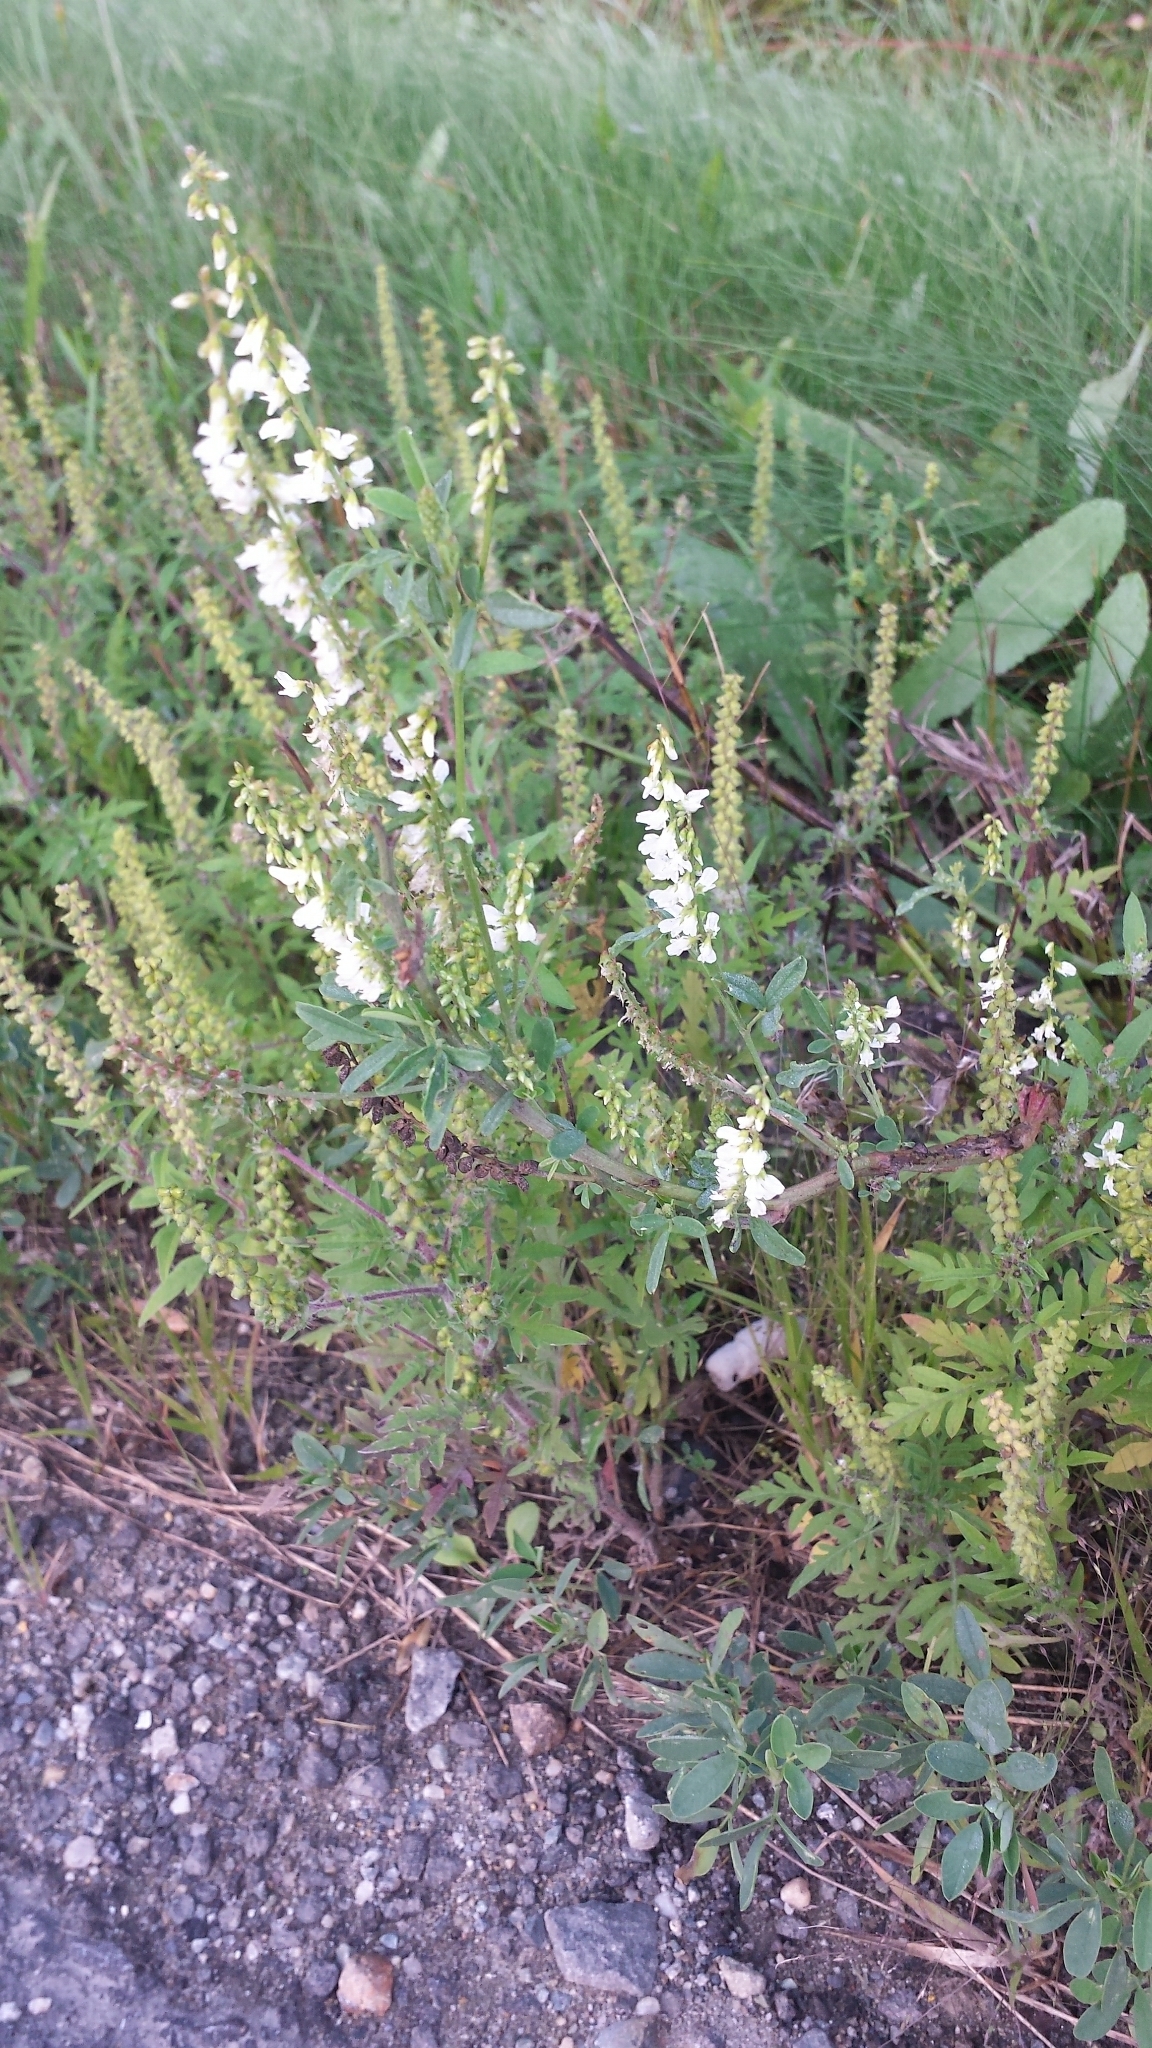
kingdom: Plantae
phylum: Tracheophyta
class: Magnoliopsida
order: Fabales
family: Fabaceae
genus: Melilotus
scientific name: Melilotus albus
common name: White melilot
